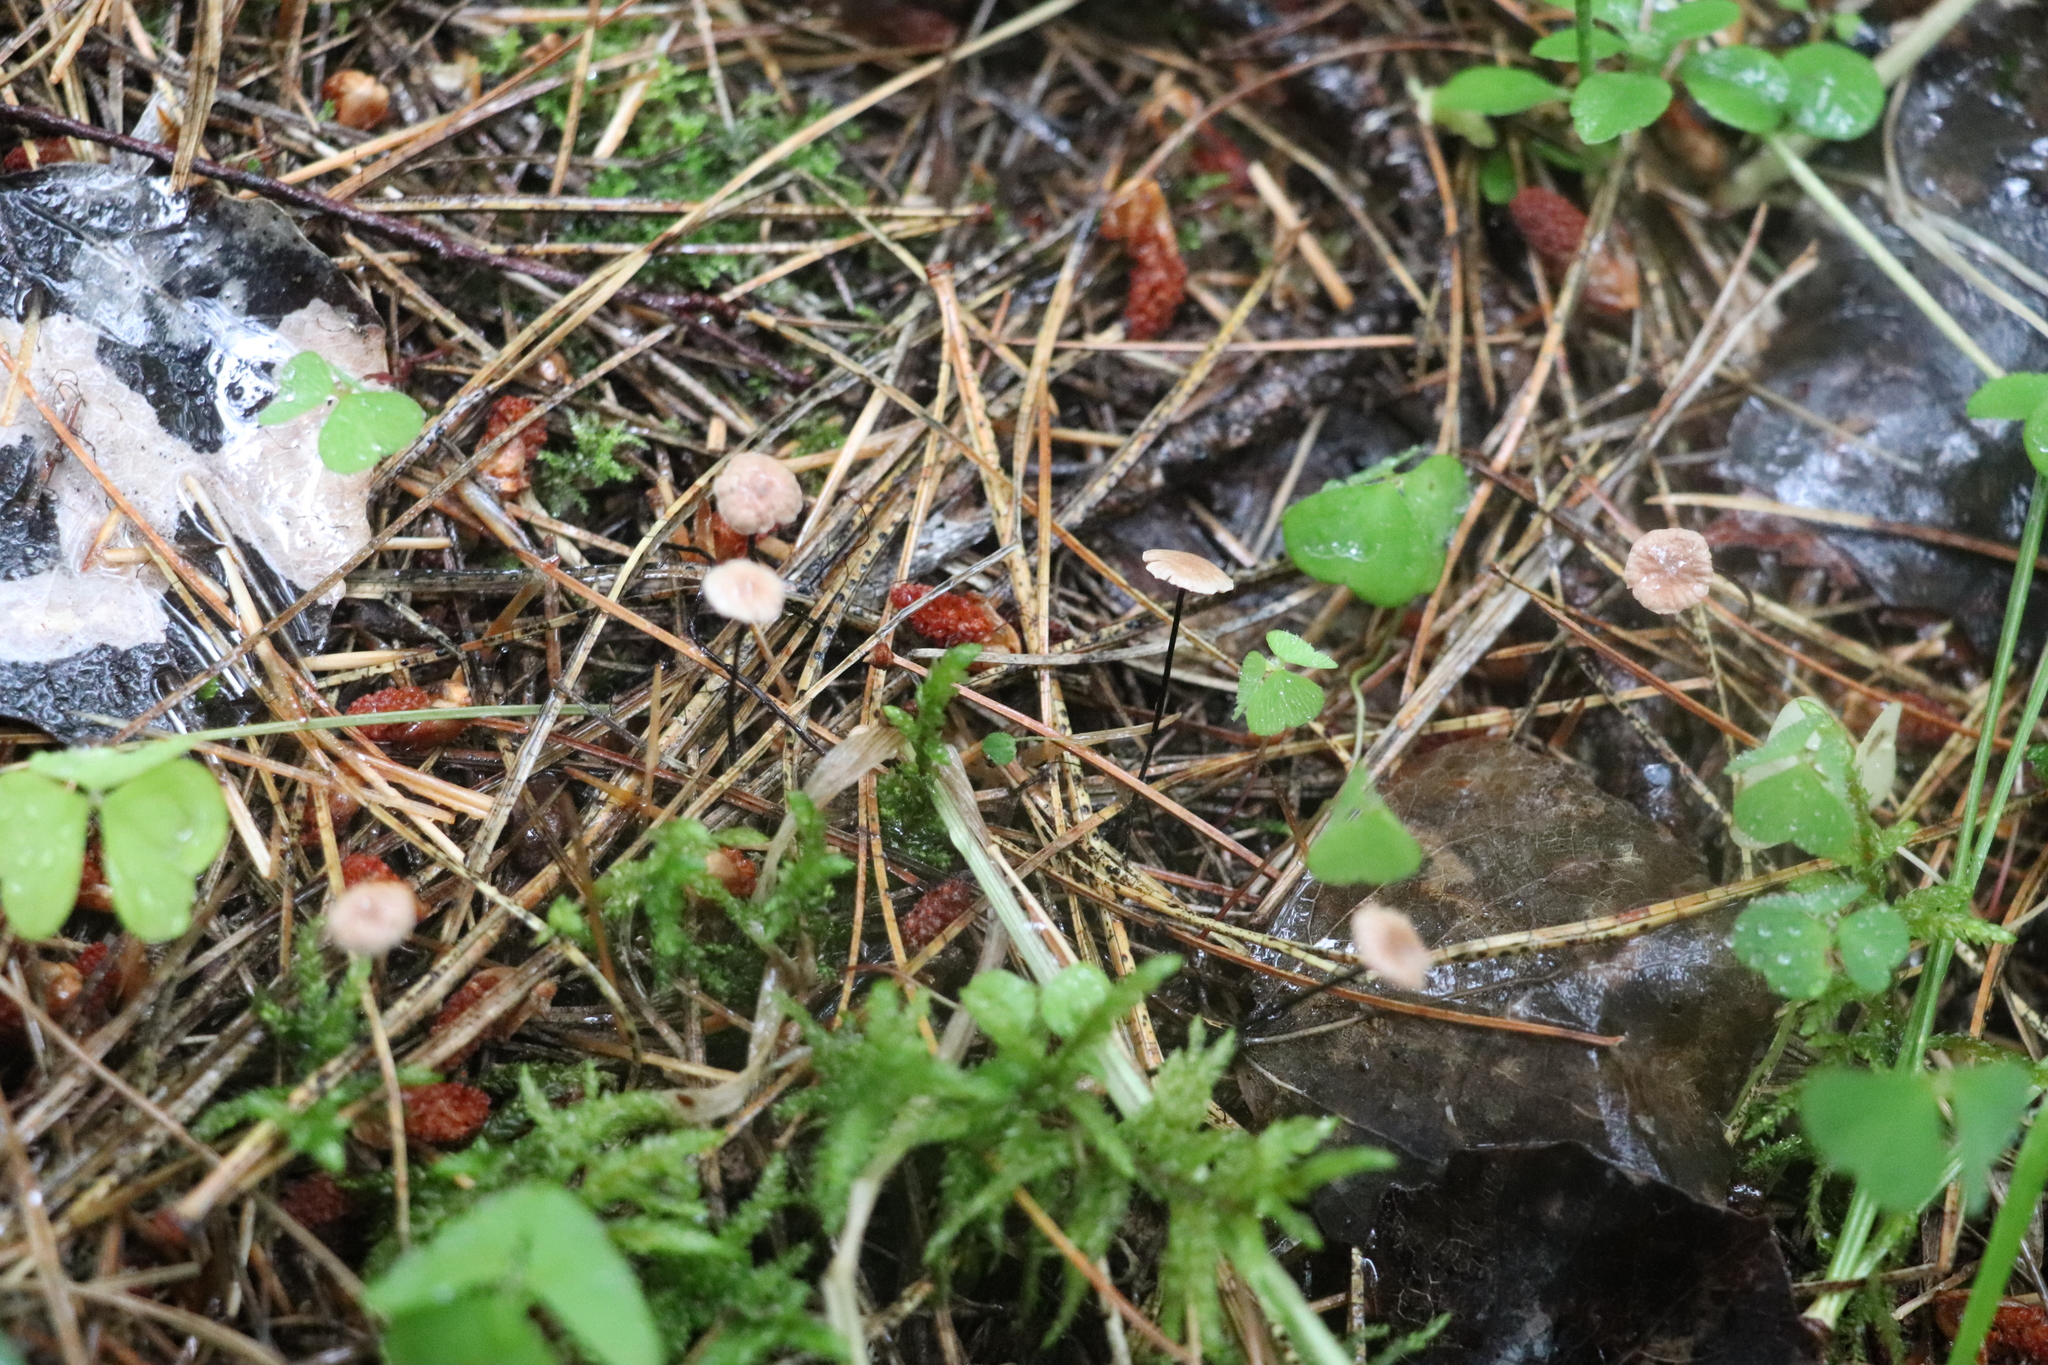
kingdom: Fungi
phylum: Basidiomycota
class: Agaricomycetes
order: Agaricales
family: Omphalotaceae
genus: Gymnopus
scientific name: Gymnopus androsaceus
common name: Horse-hair fungus
